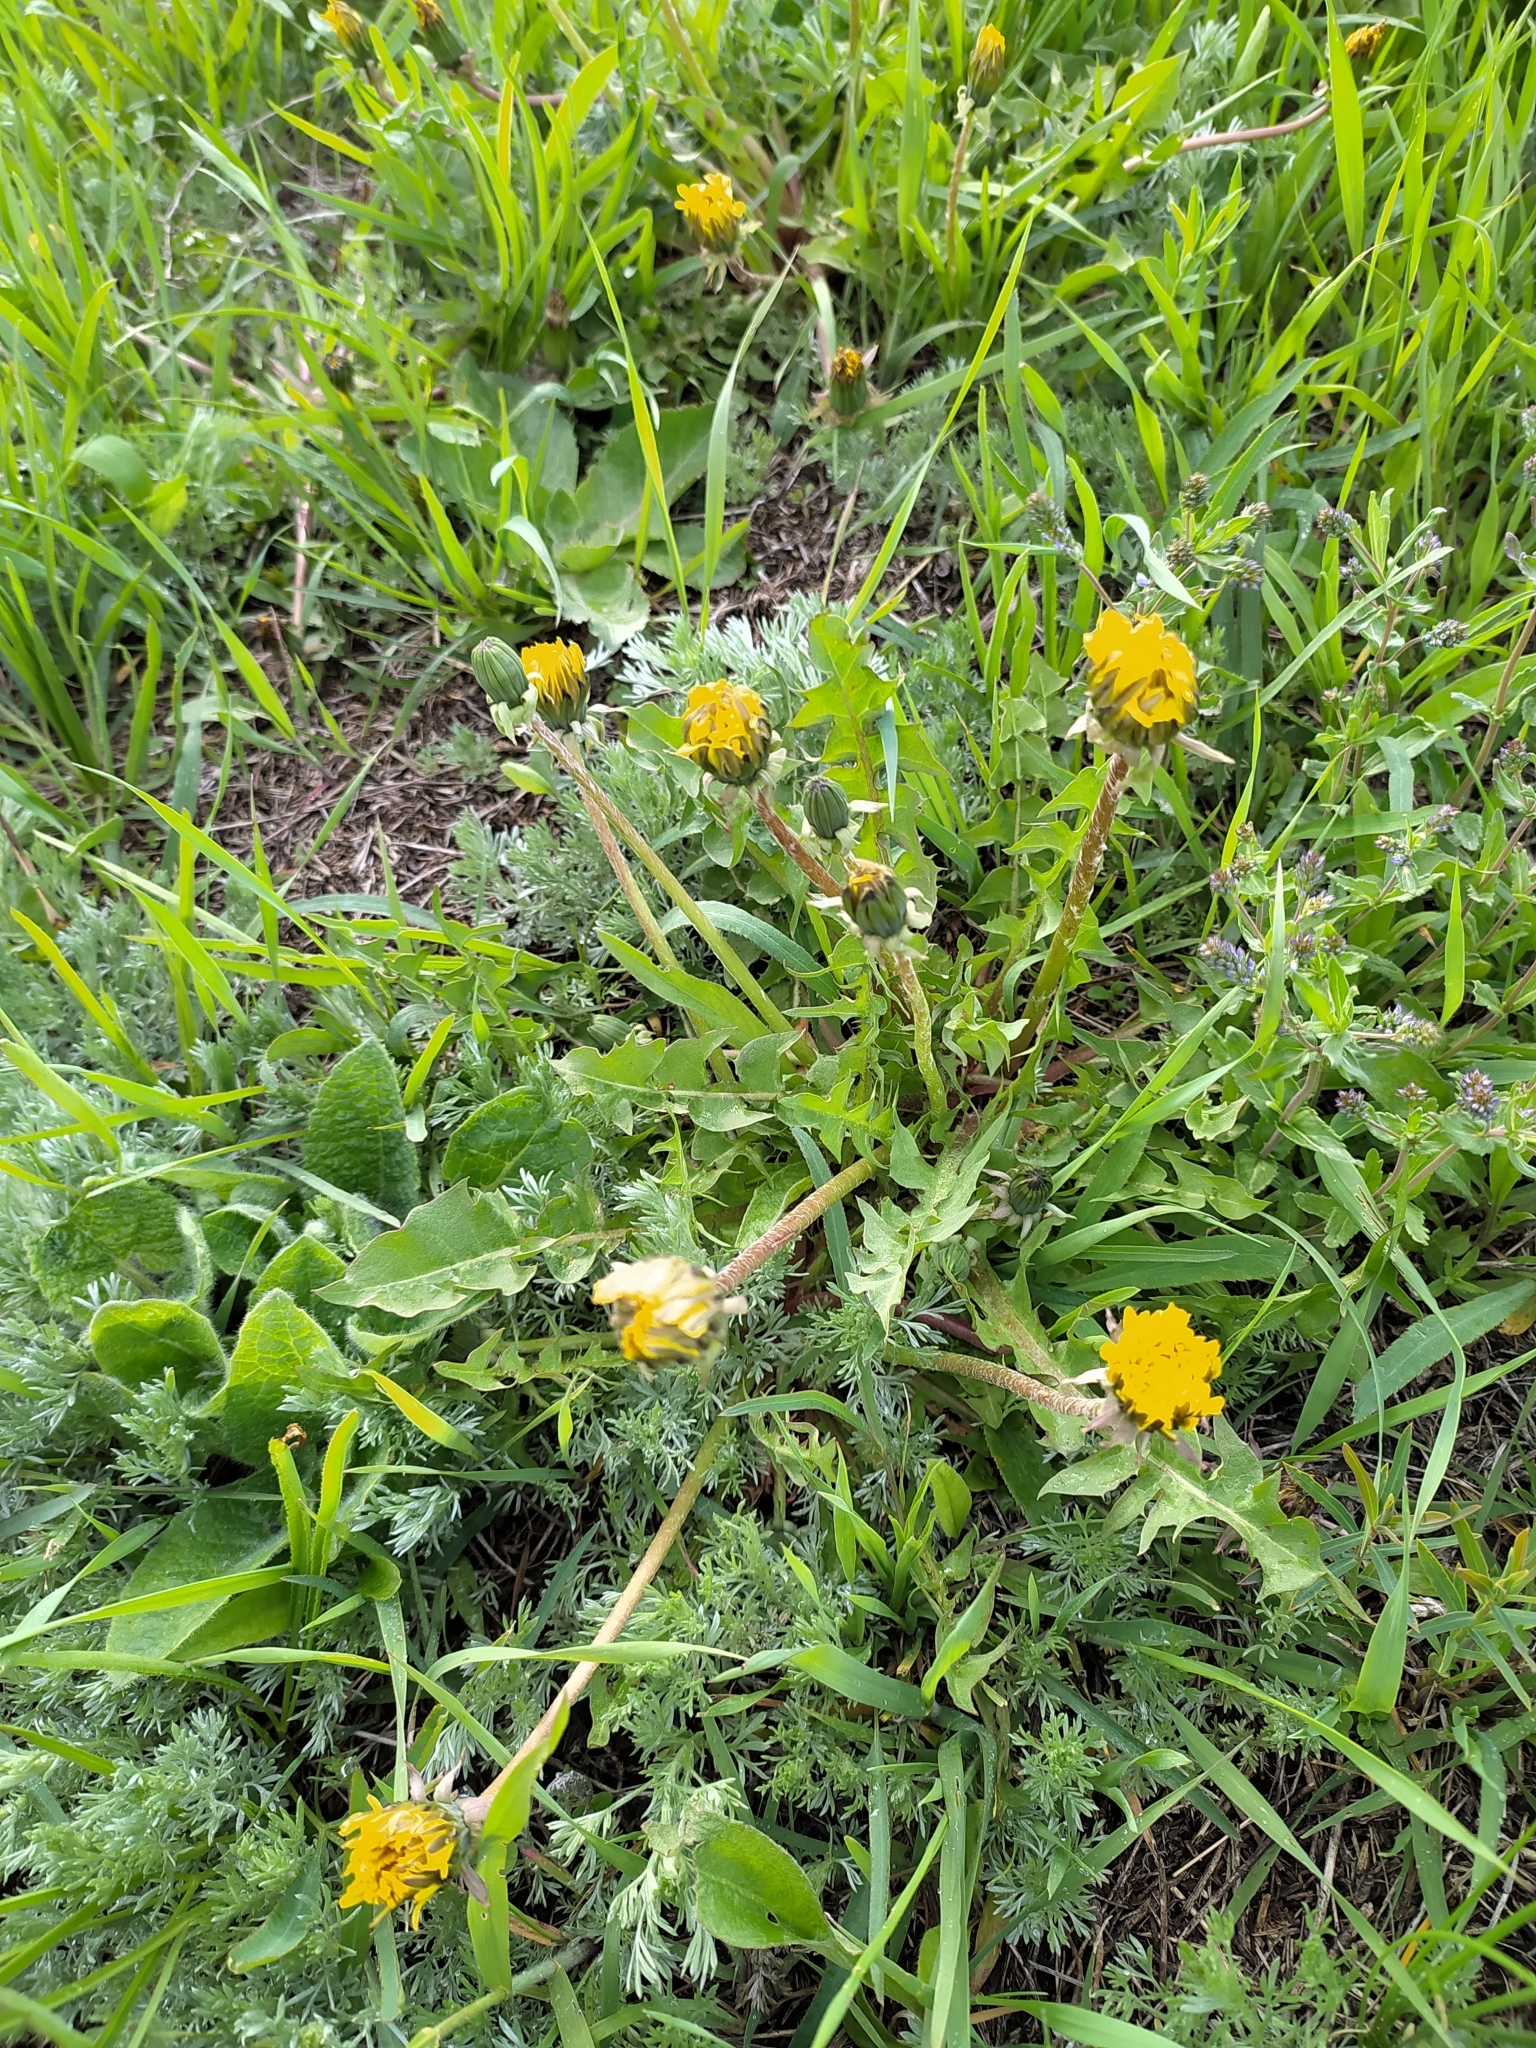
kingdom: Plantae
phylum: Tracheophyta
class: Magnoliopsida
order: Asterales
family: Asteraceae
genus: Taraxacum
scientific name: Taraxacum officinale
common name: Common dandelion
